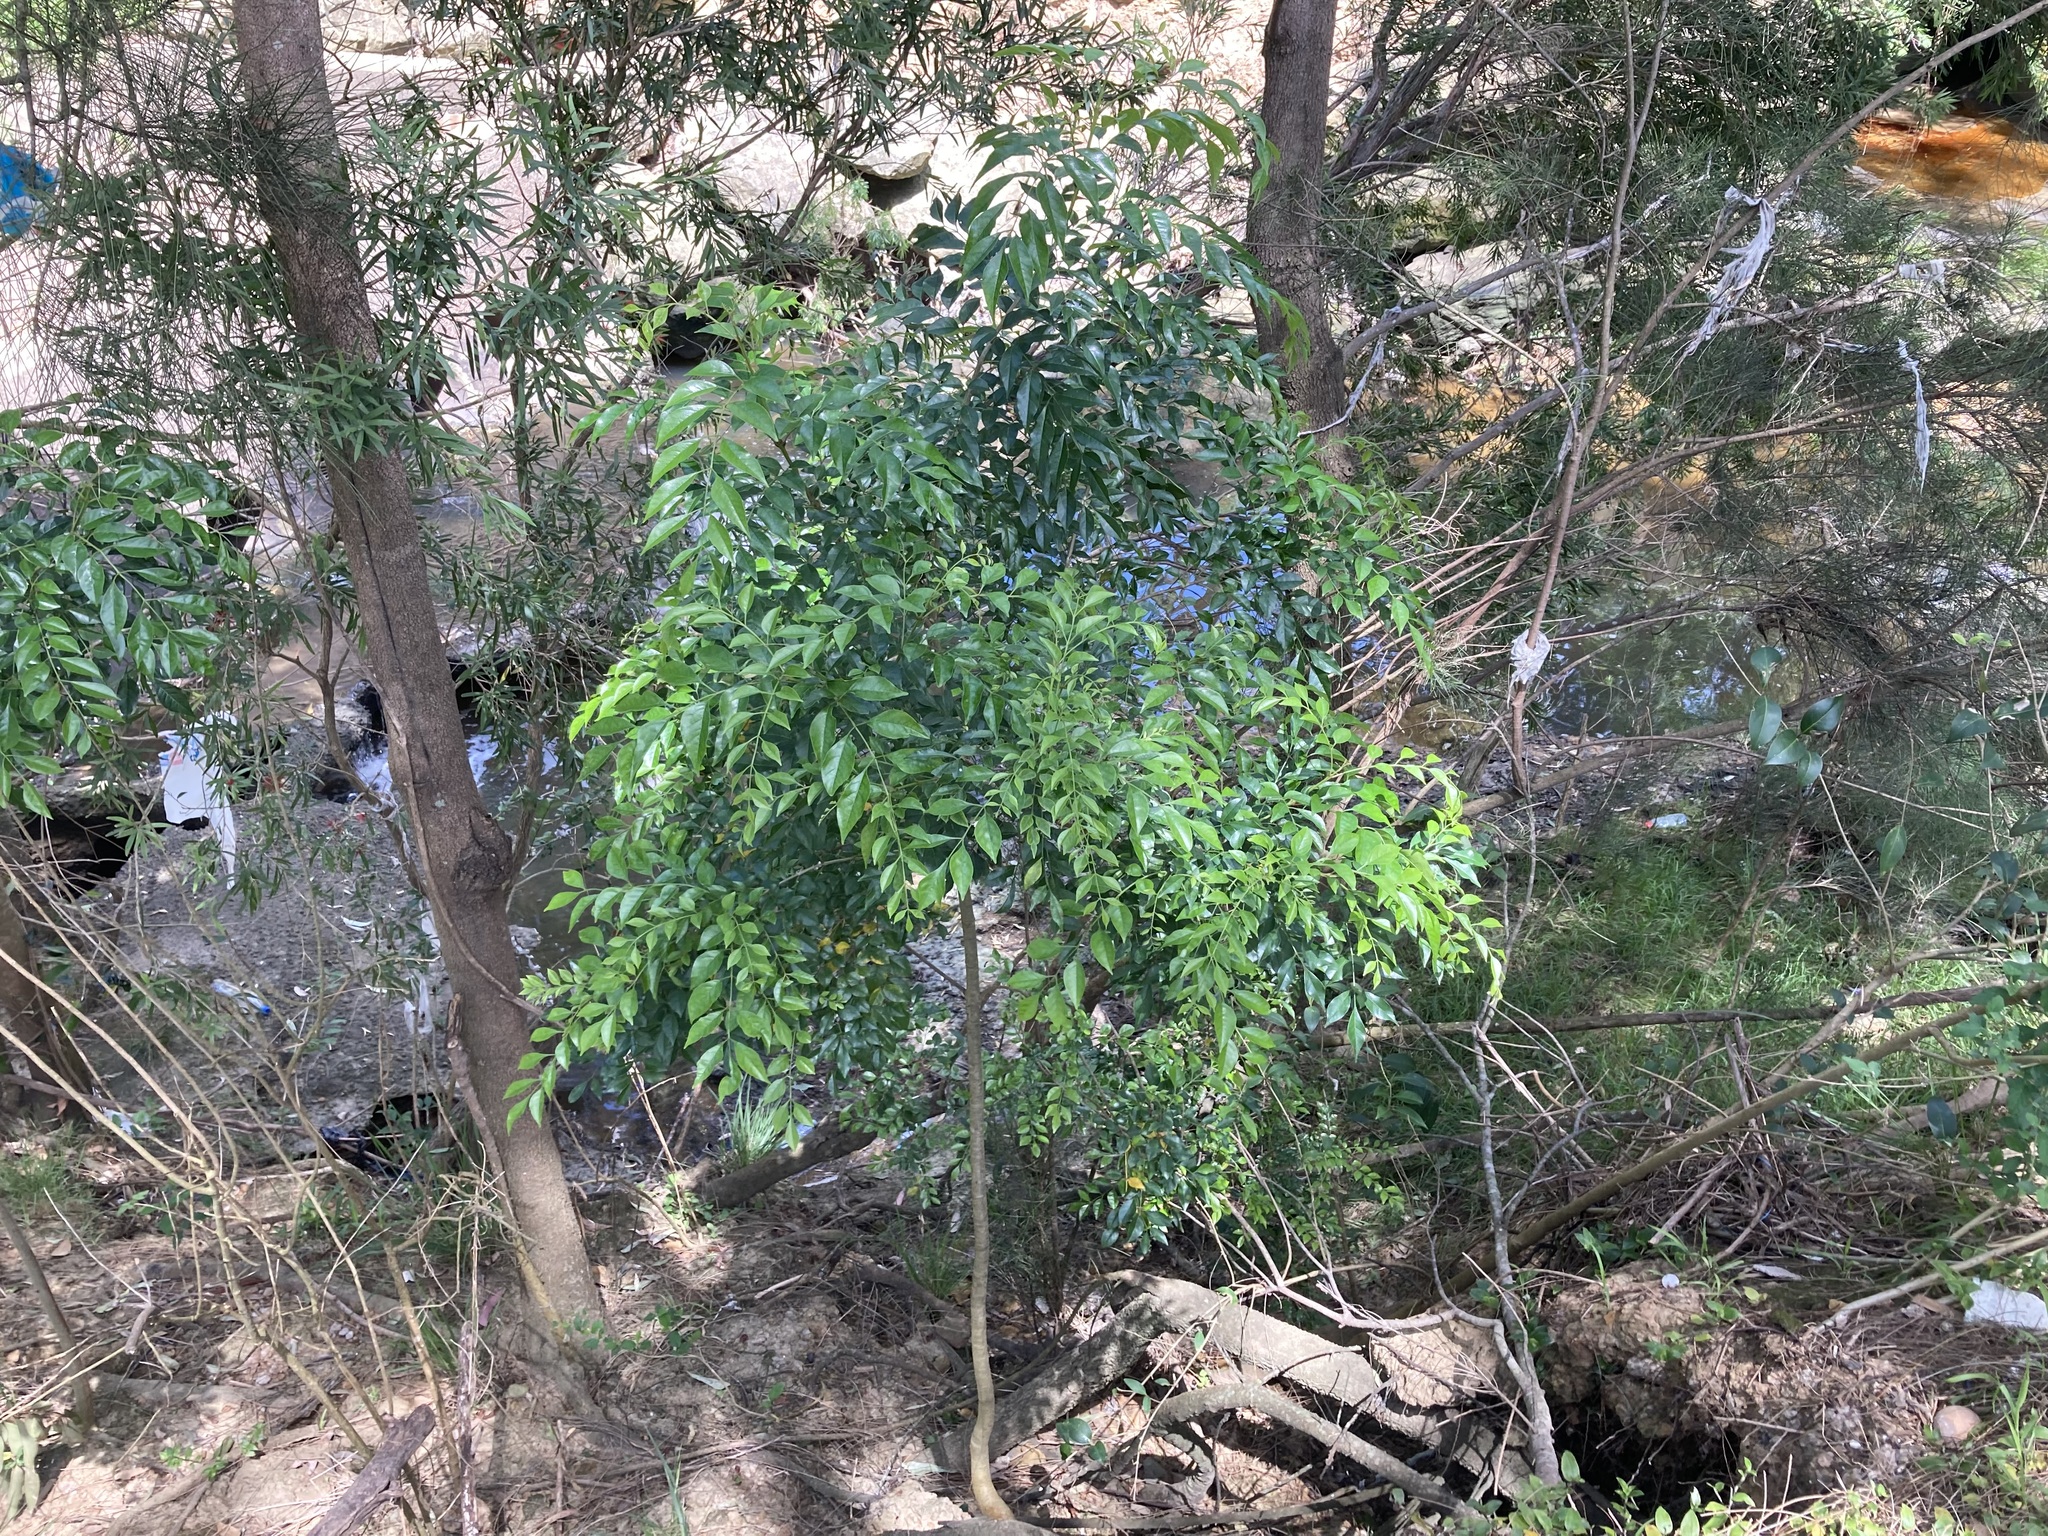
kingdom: Plantae
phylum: Tracheophyta
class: Magnoliopsida
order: Lamiales
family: Oleaceae
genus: Fraxinus
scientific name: Fraxinus griffithii
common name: Himalayan ash
